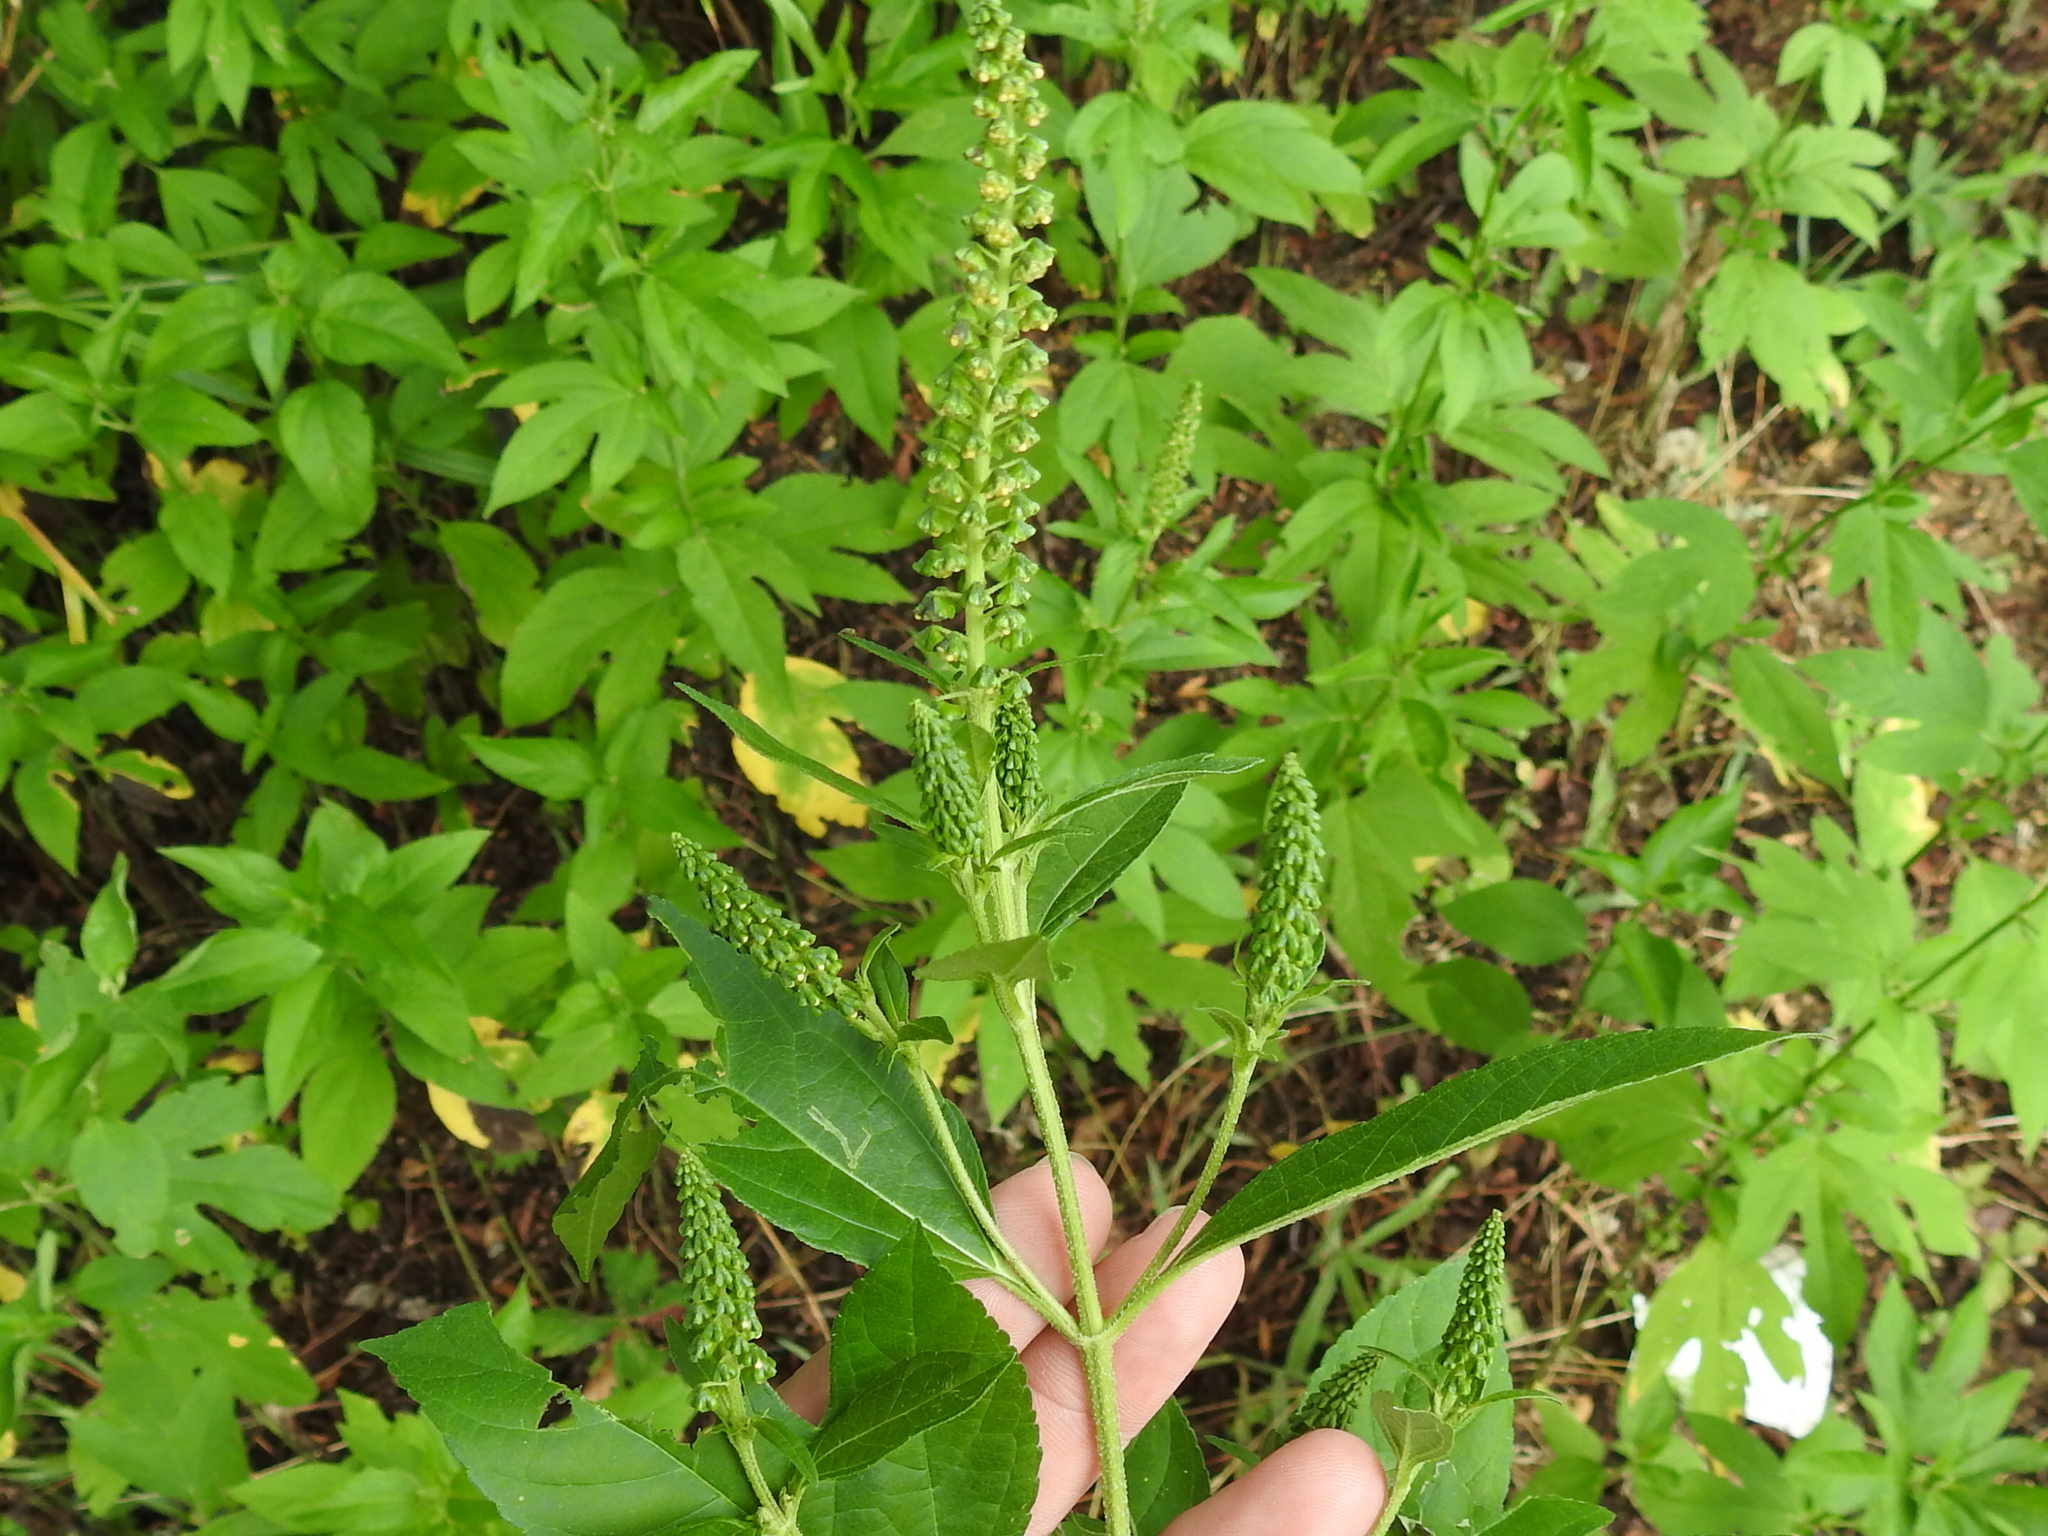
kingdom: Plantae
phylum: Tracheophyta
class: Magnoliopsida
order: Asterales
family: Asteraceae
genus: Ambrosia
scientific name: Ambrosia trifida
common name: Giant ragweed
